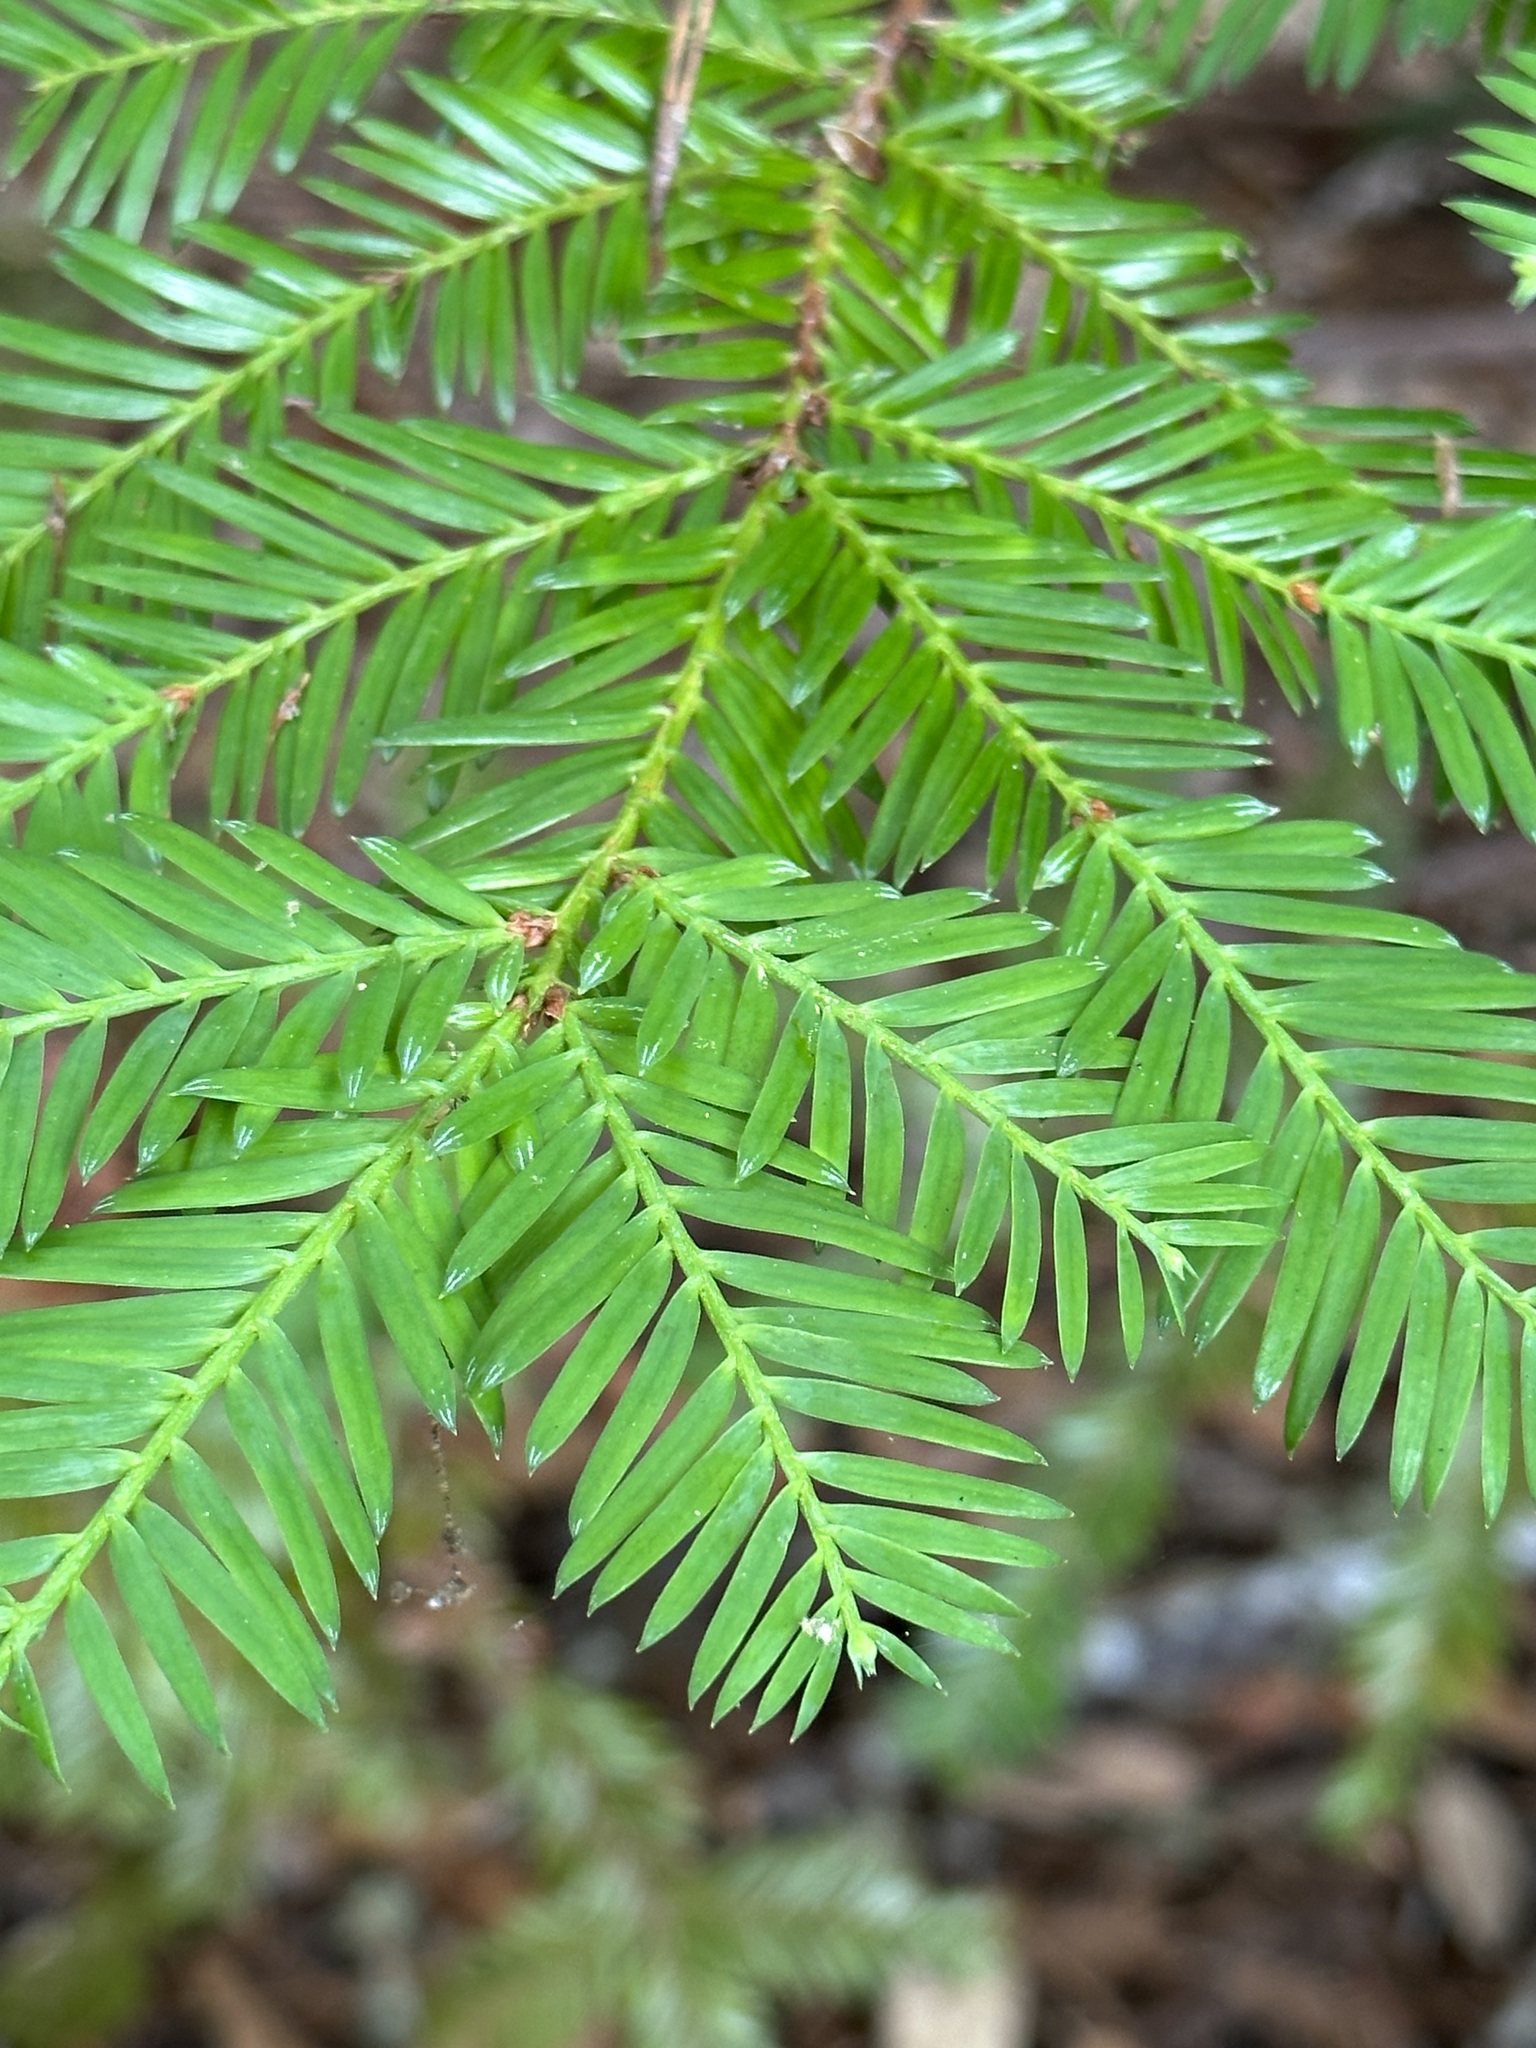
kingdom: Plantae
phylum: Tracheophyta
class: Pinopsida
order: Pinales
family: Cupressaceae
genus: Sequoia
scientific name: Sequoia sempervirens
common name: Coast redwood
